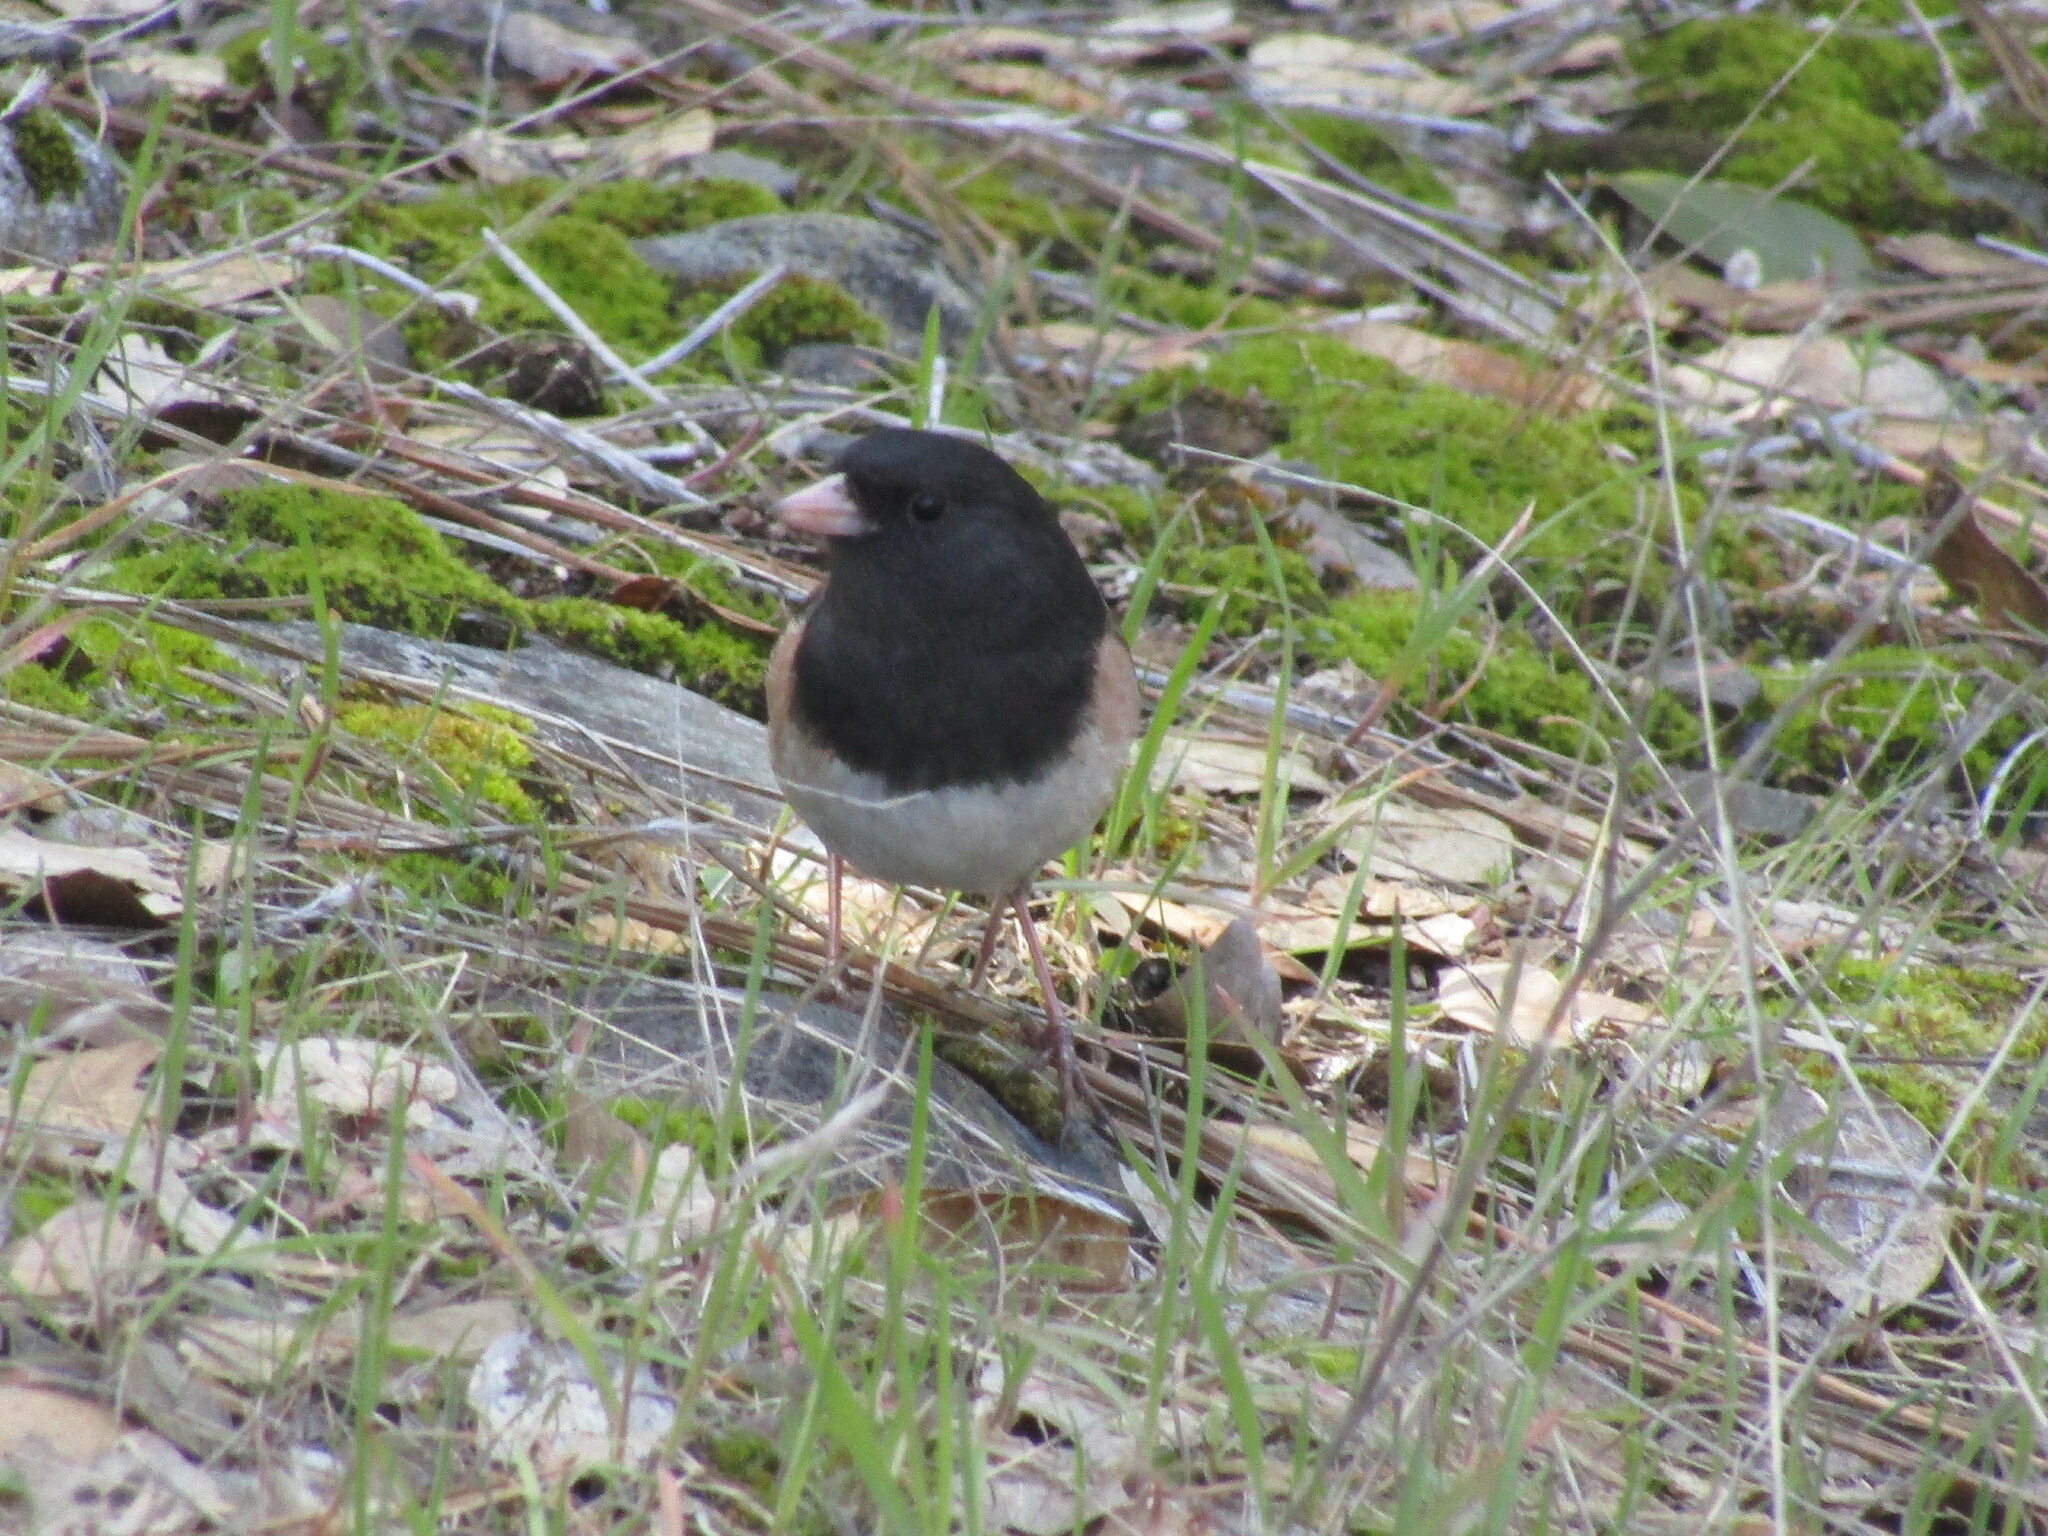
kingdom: Animalia
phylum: Chordata
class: Aves
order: Passeriformes
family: Passerellidae
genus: Junco
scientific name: Junco hyemalis
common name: Dark-eyed junco
